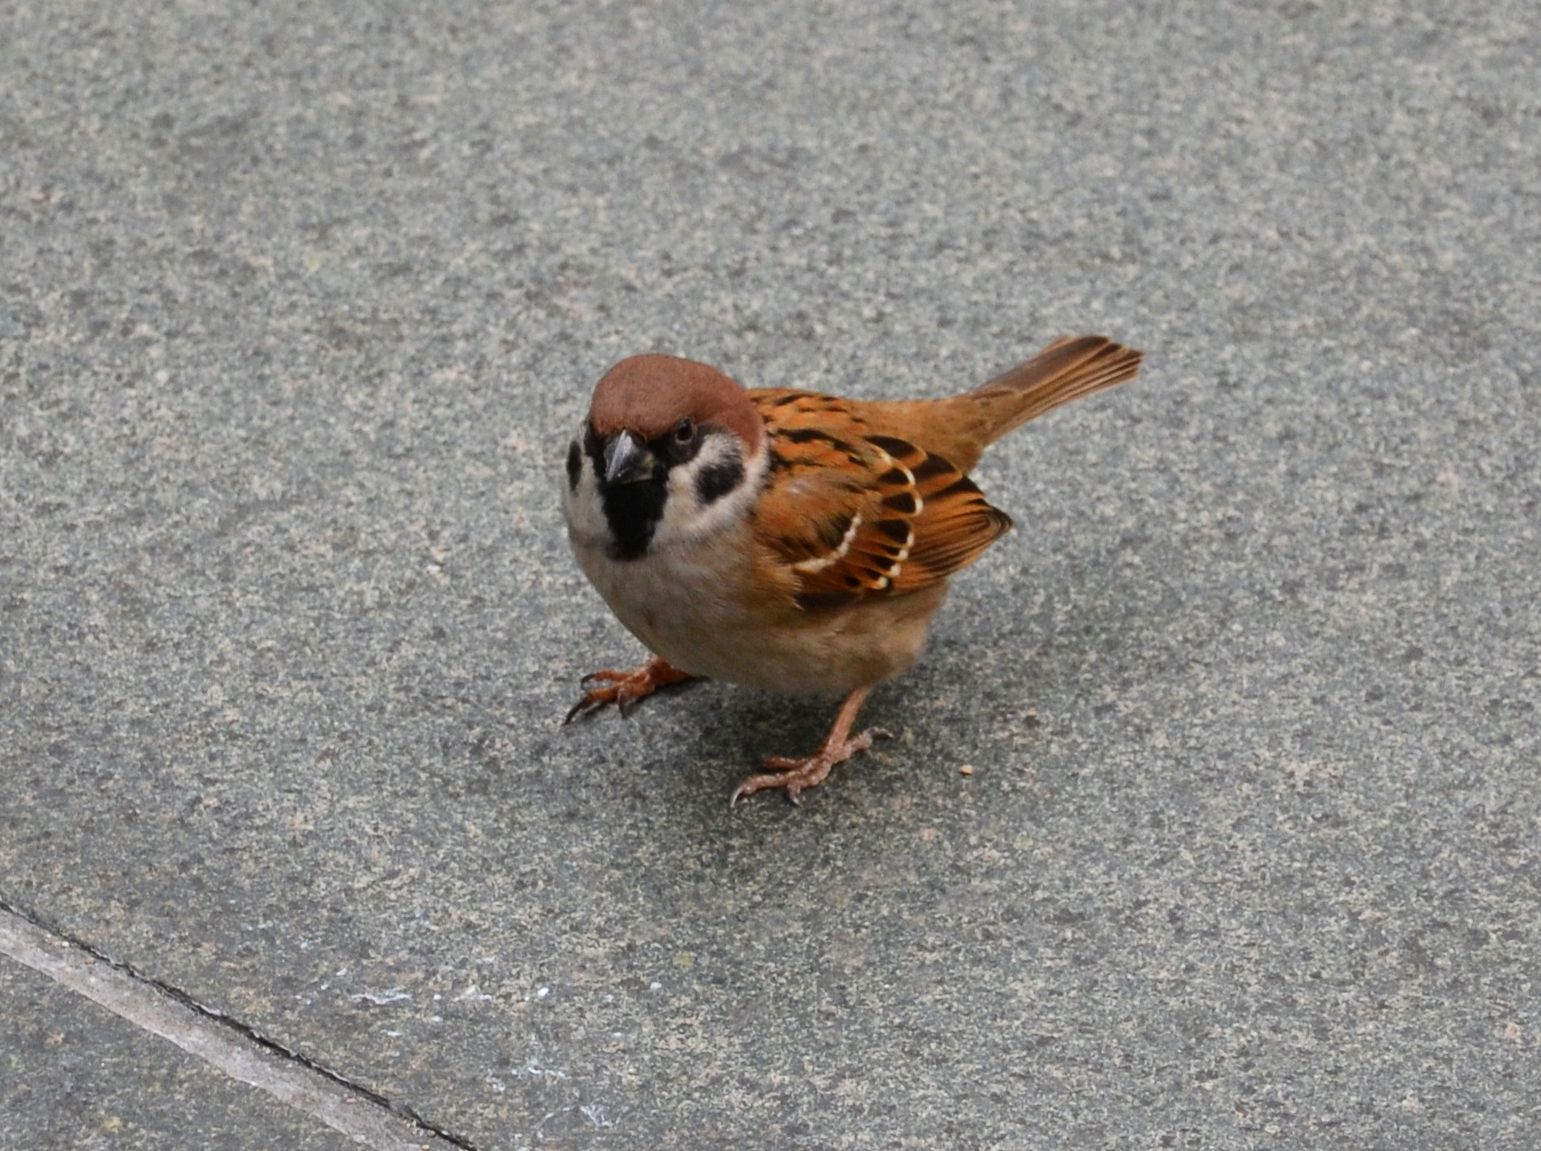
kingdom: Animalia
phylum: Chordata
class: Aves
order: Passeriformes
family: Passeridae
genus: Passer
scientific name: Passer montanus
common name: Eurasian tree sparrow
